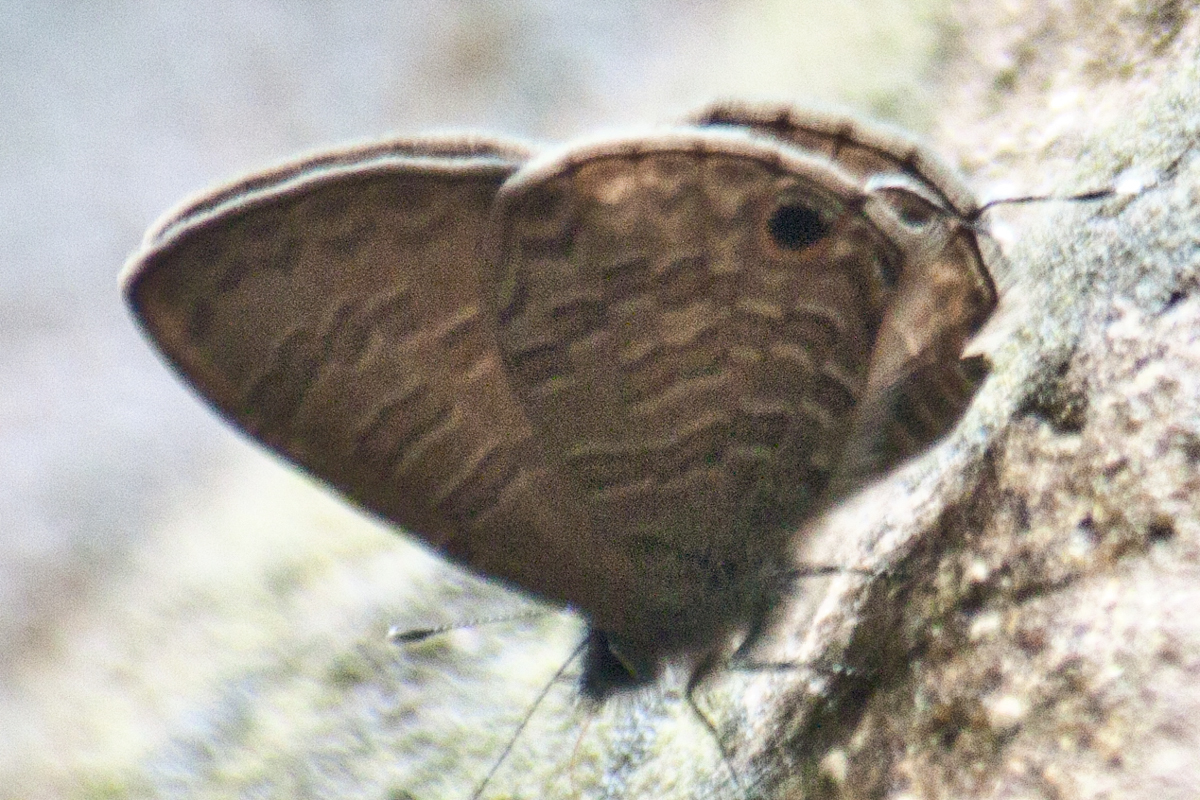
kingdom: Animalia
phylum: Arthropoda
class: Insecta
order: Lepidoptera
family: Lycaenidae
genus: Prosotas
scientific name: Prosotas nora
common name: Common line blue
